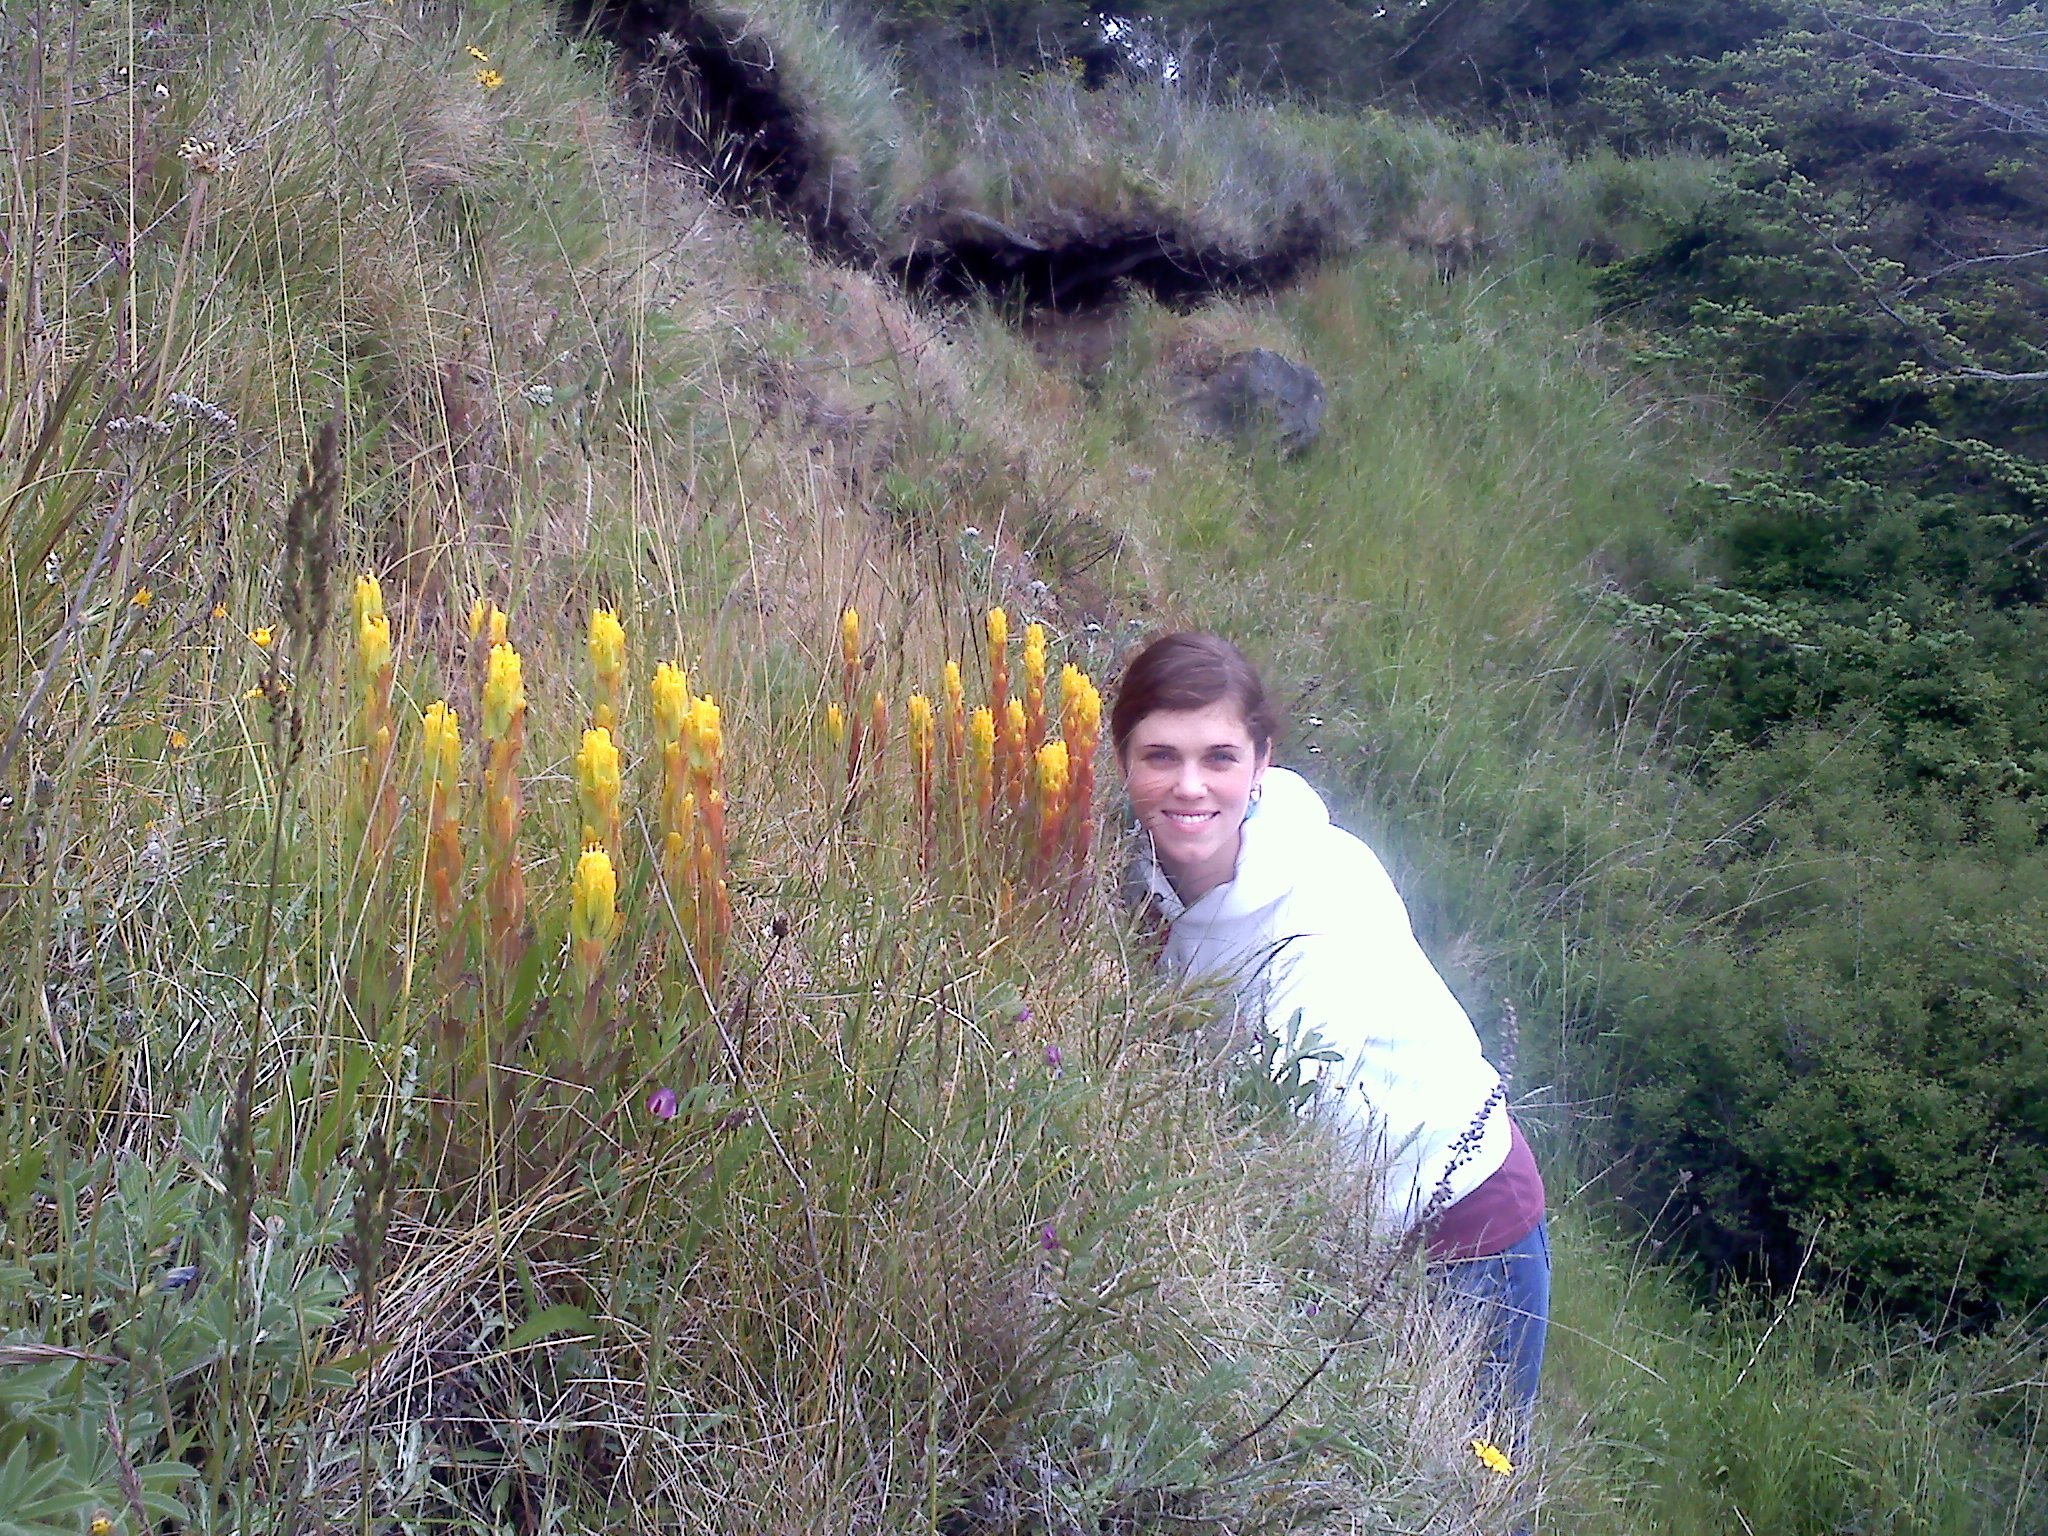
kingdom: Plantae
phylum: Tracheophyta
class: Magnoliopsida
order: Lamiales
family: Orobanchaceae
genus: Castilleja
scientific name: Castilleja levisecta
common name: Golden paintbrush
